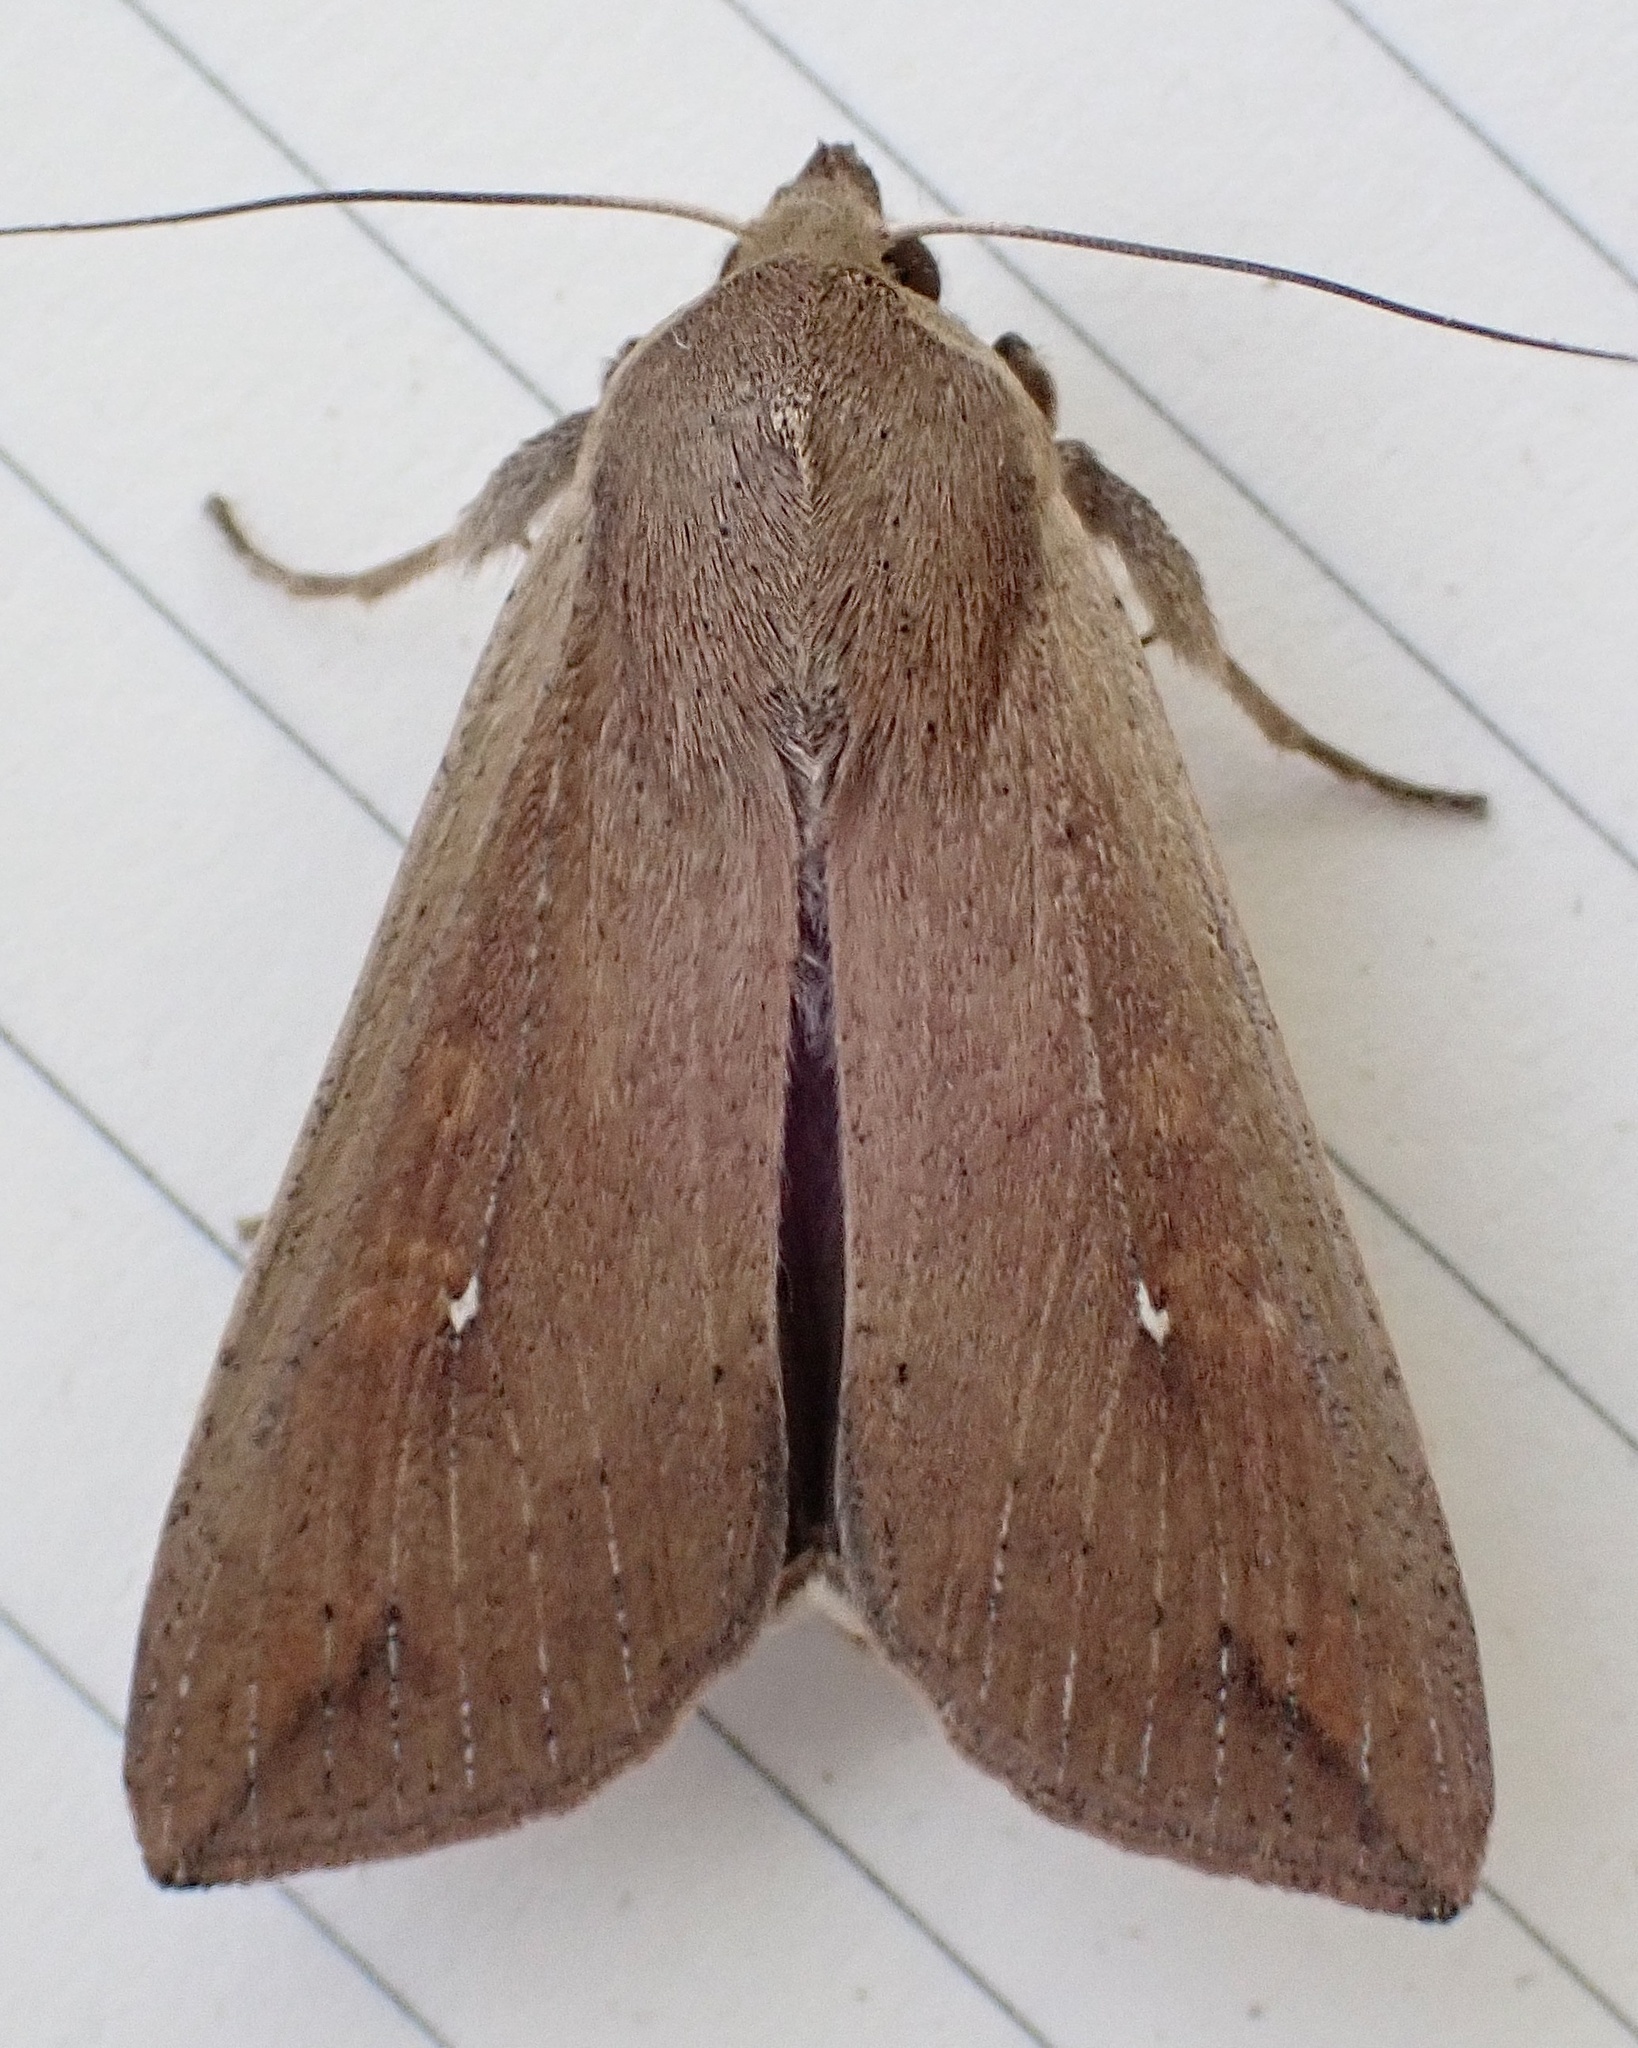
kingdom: Animalia
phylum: Arthropoda
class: Insecta
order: Lepidoptera
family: Noctuidae
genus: Mythimna
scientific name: Mythimna unipuncta
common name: White-speck
